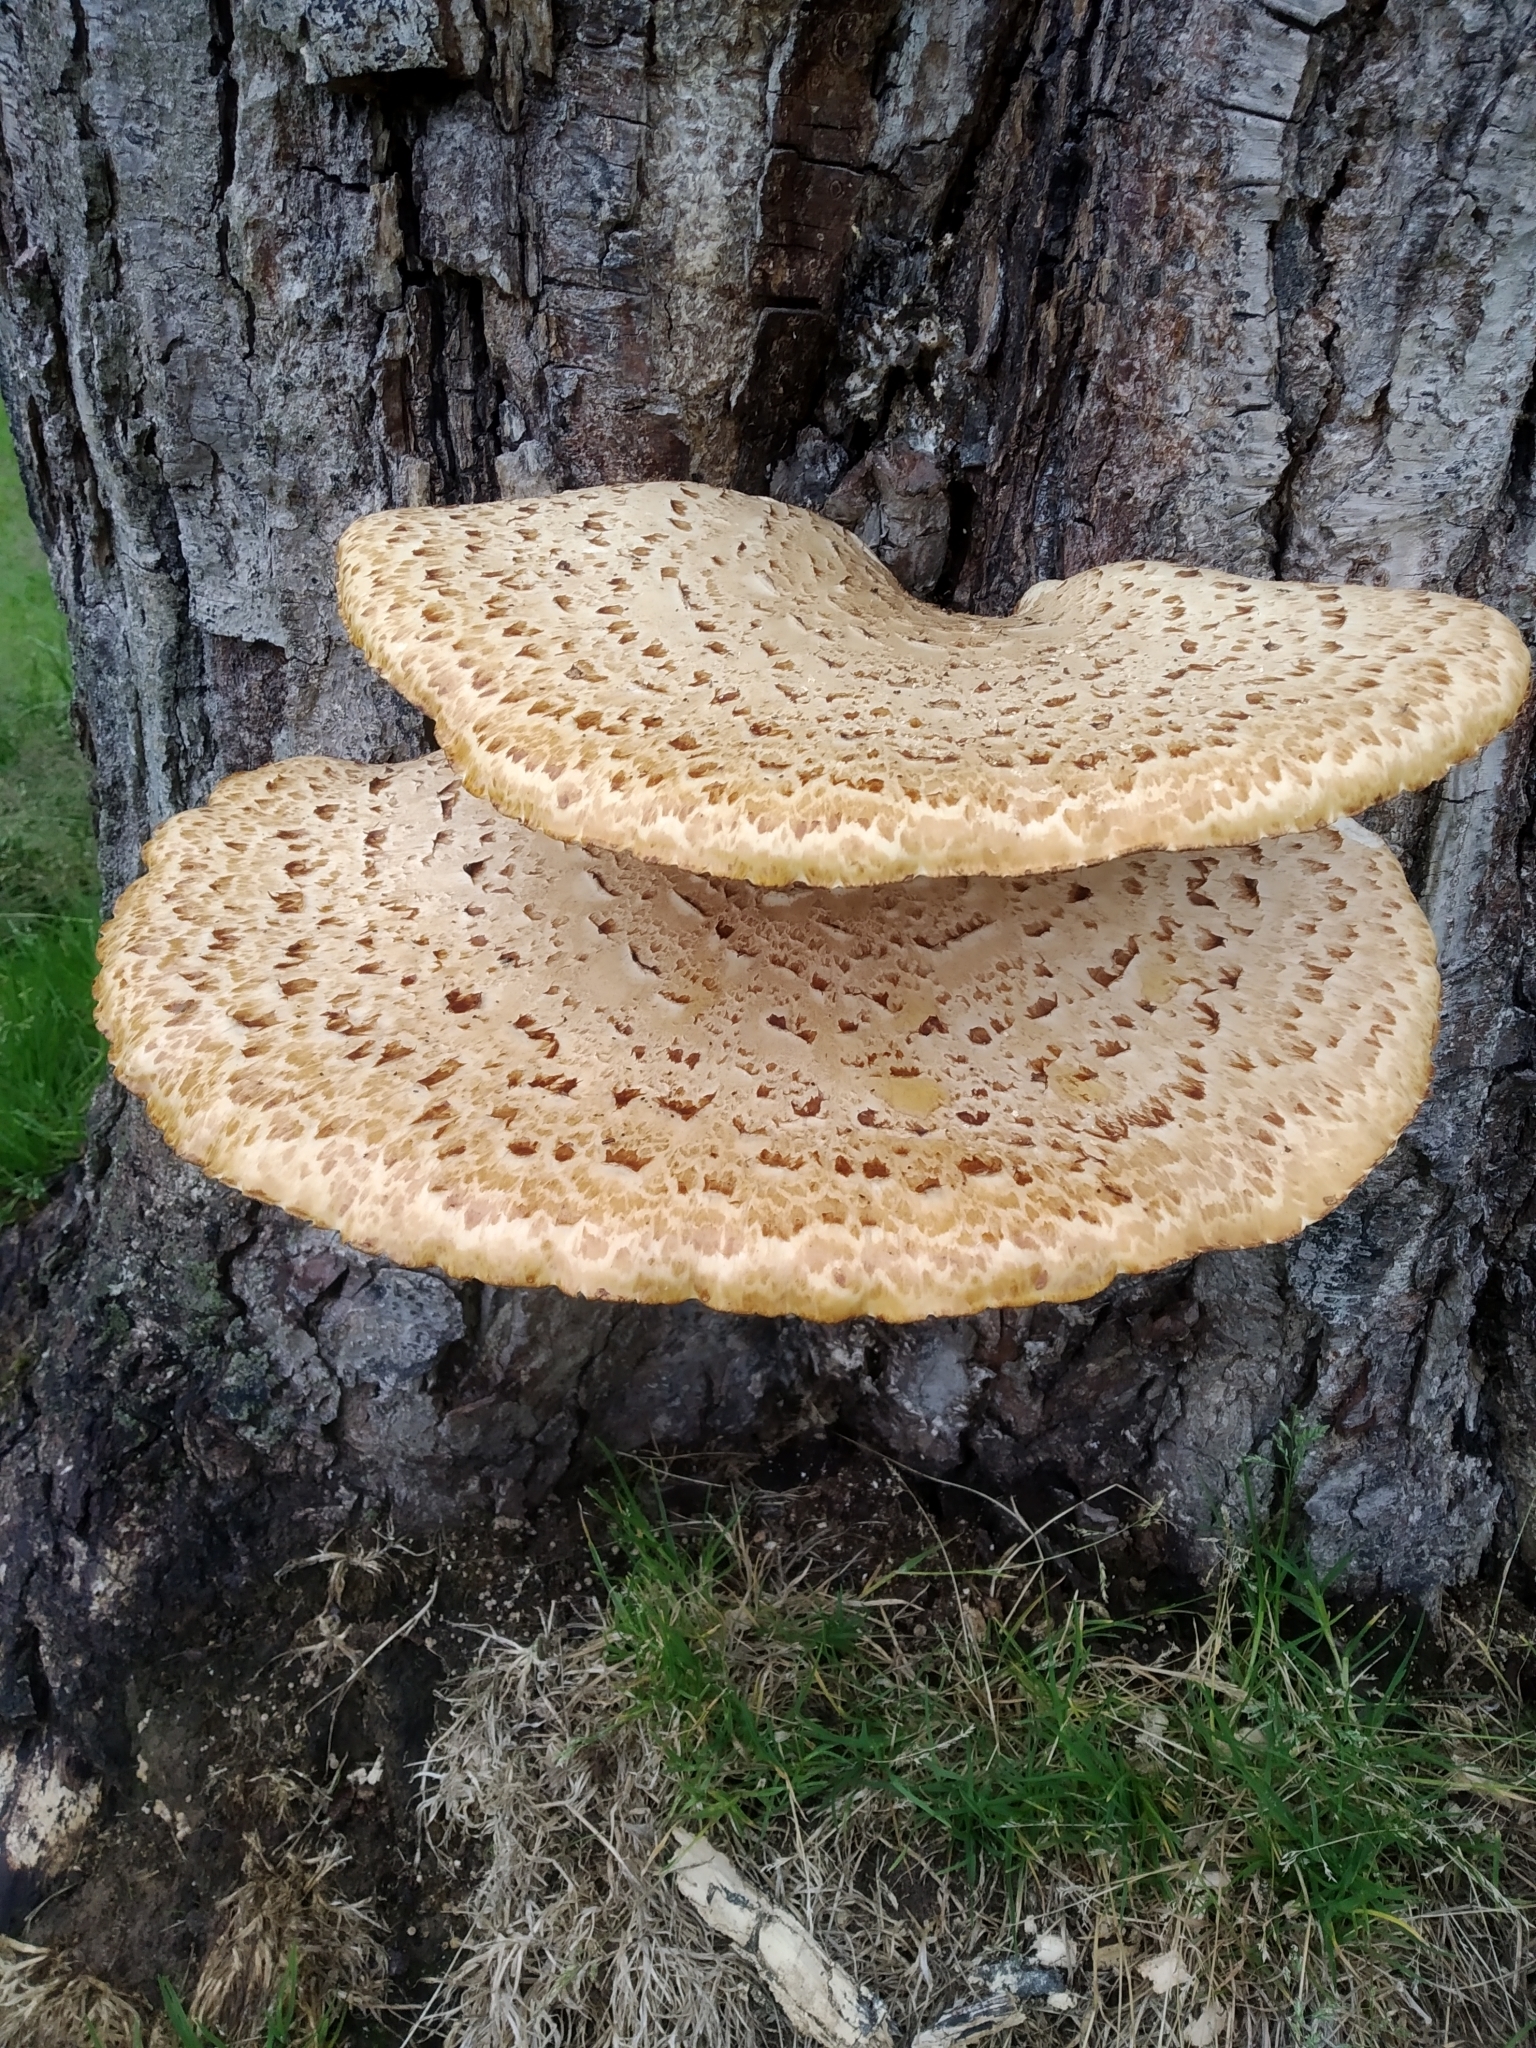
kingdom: Fungi
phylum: Basidiomycota
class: Agaricomycetes
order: Polyporales
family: Polyporaceae
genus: Cerioporus
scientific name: Cerioporus squamosus
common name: Dryad's saddle
